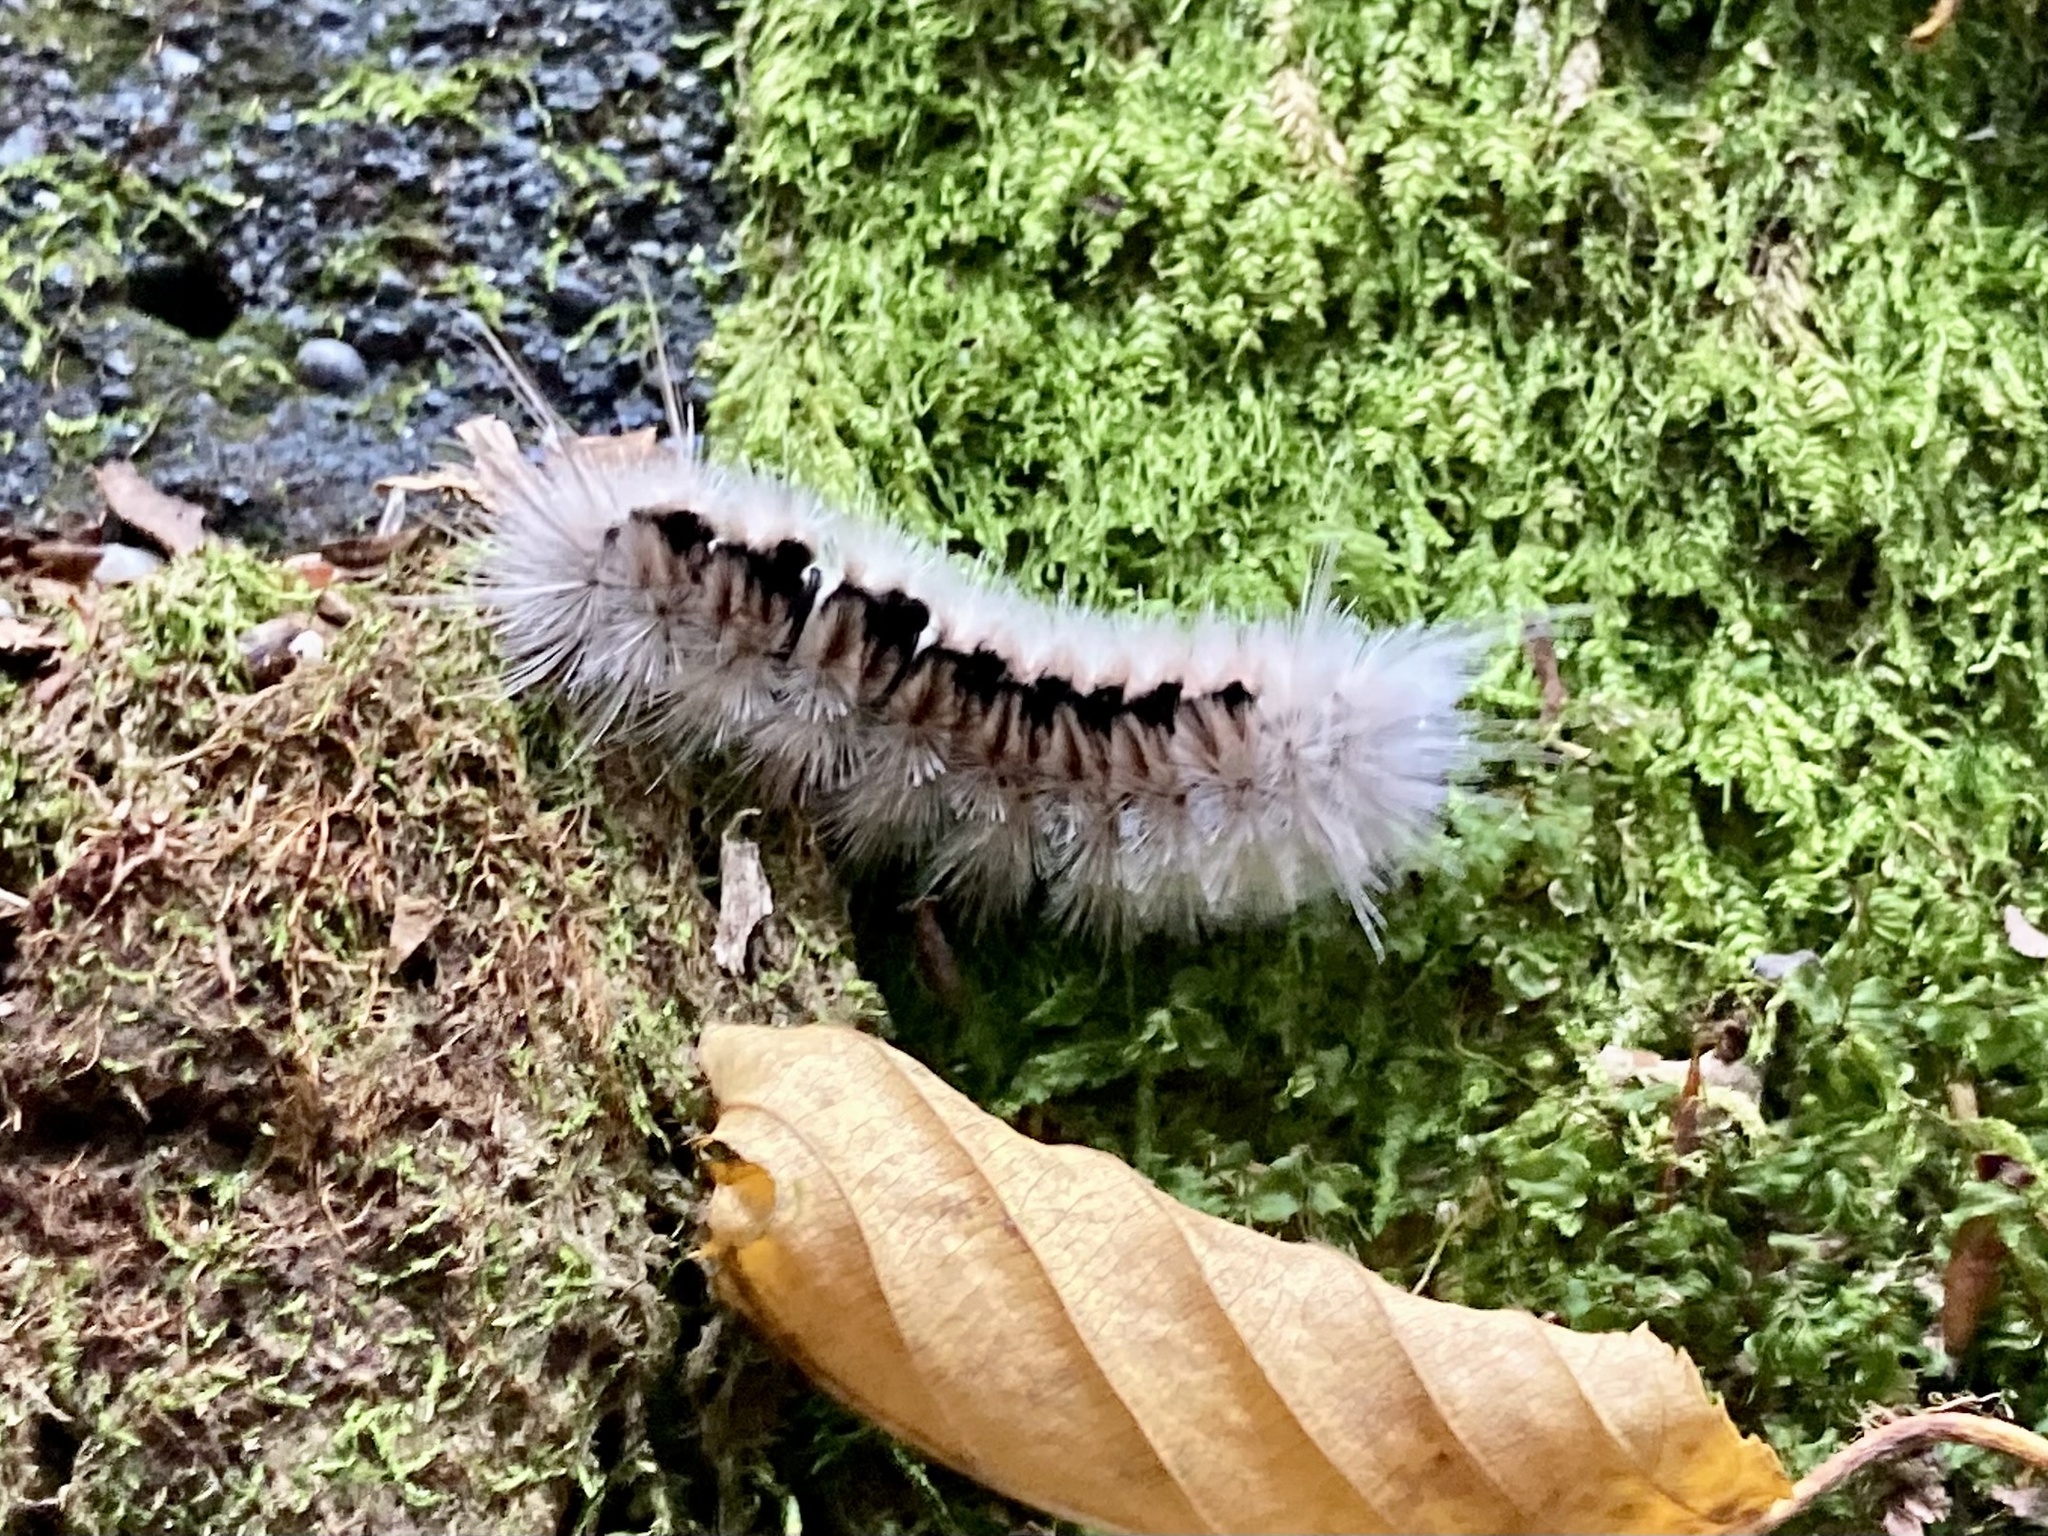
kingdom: Animalia
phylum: Arthropoda
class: Insecta
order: Lepidoptera
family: Erebidae
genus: Lophocampa
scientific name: Lophocampa caryae
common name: Hickory tussock moth
